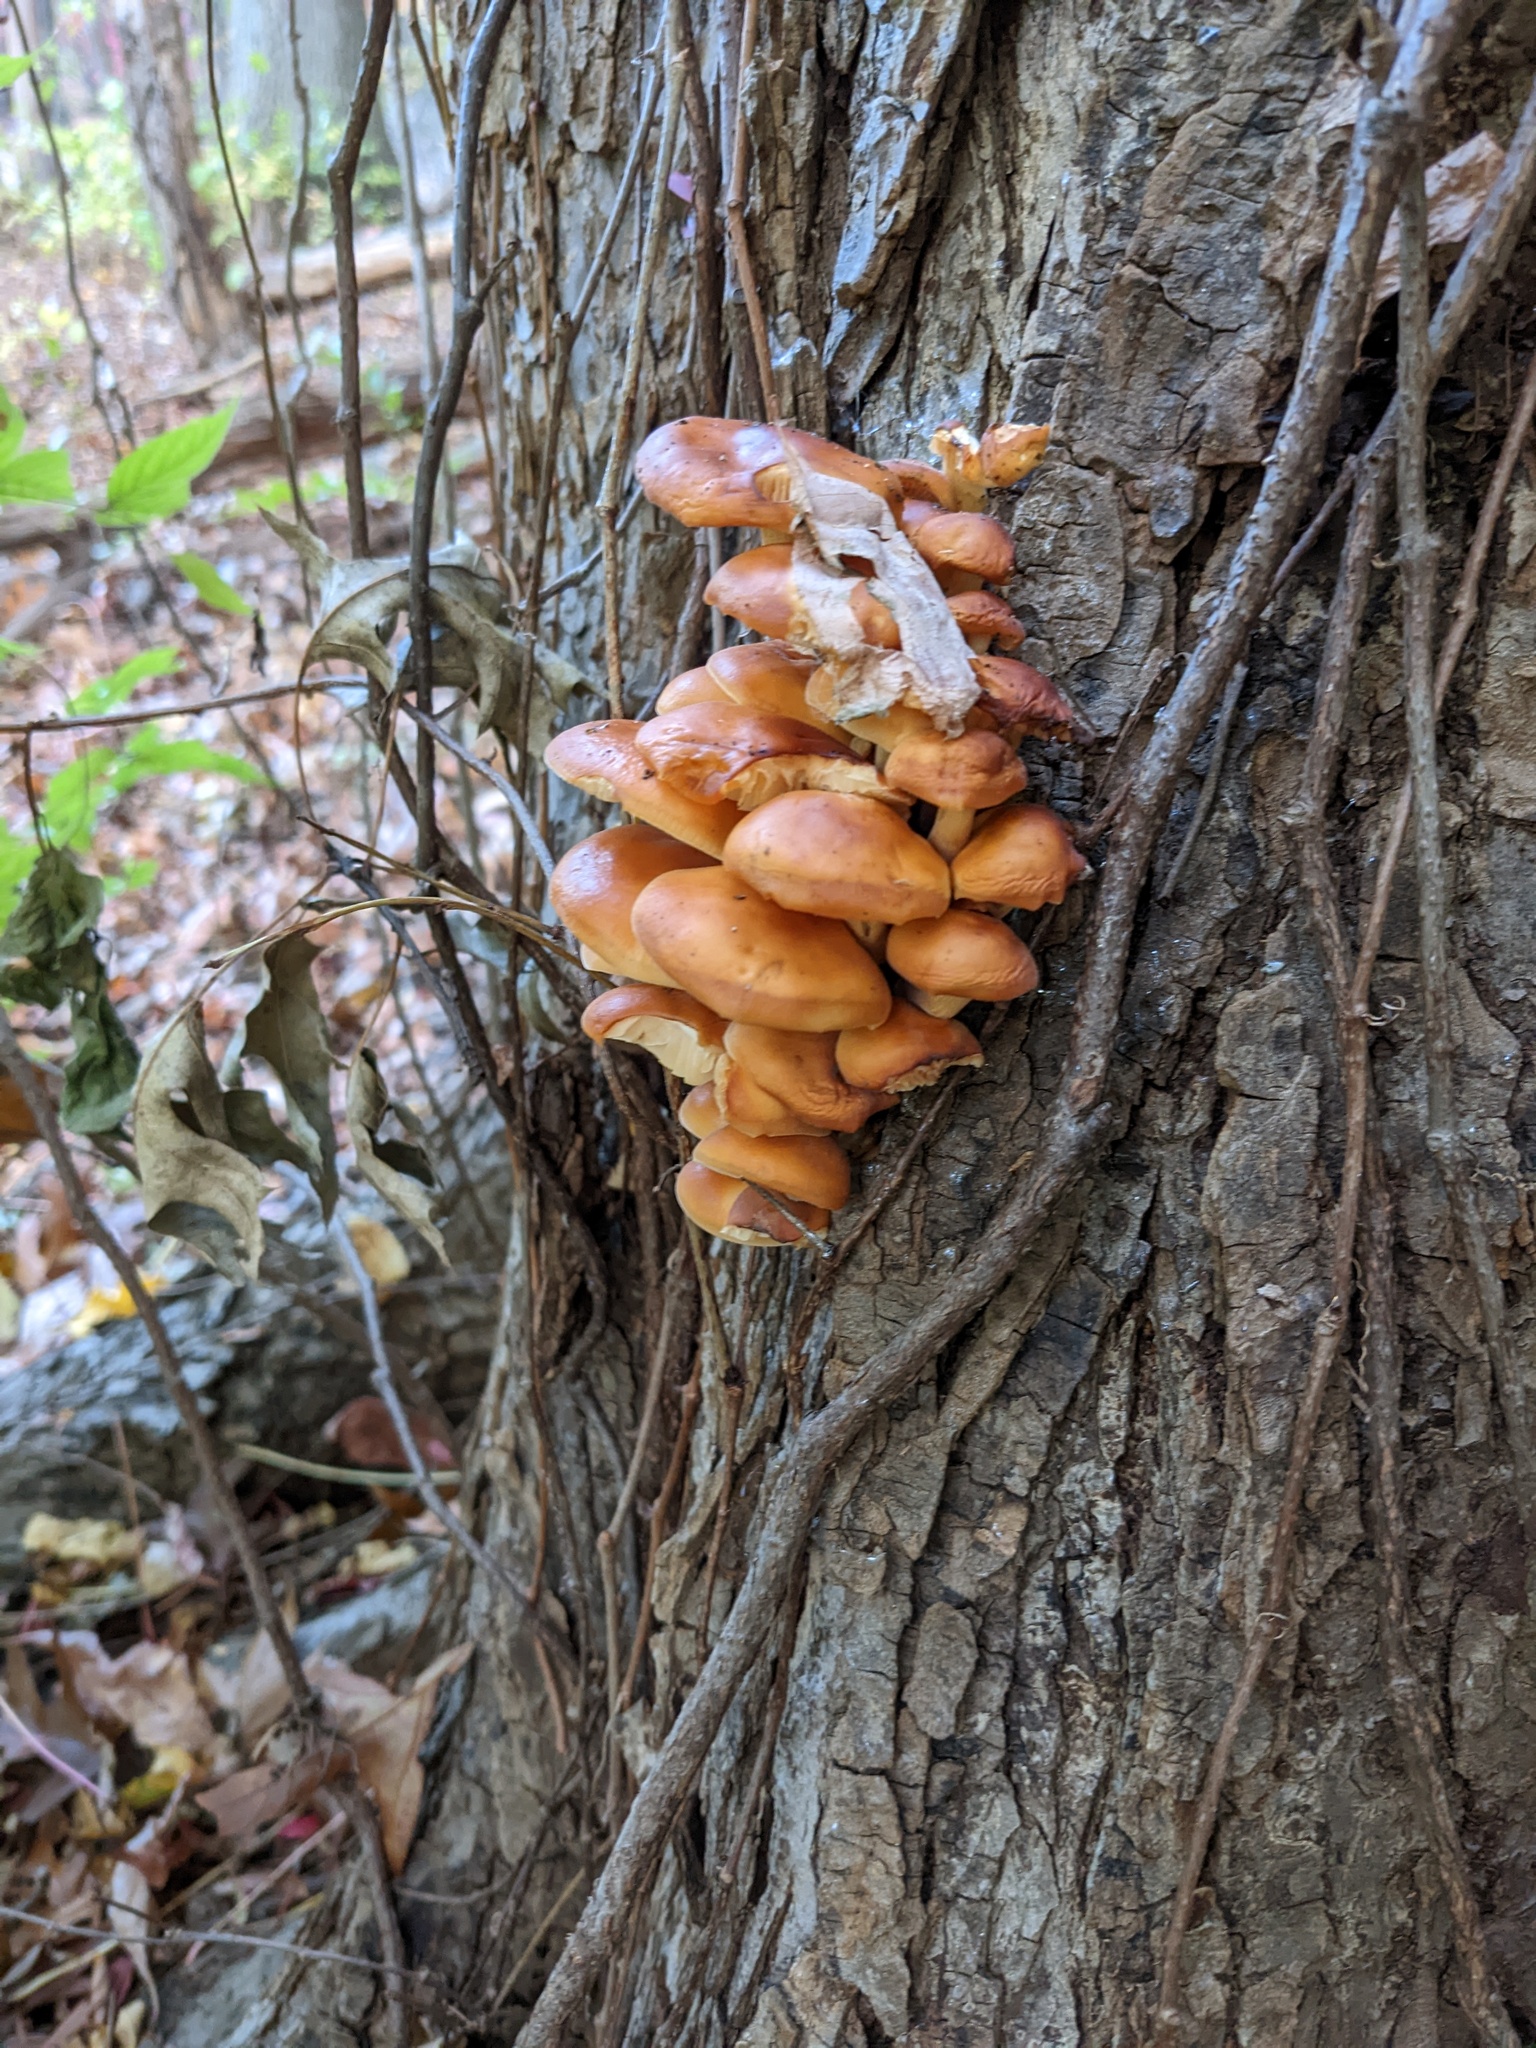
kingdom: Fungi
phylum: Basidiomycota
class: Agaricomycetes
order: Agaricales
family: Physalacriaceae
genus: Flammulina
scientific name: Flammulina velutipes
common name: Velvet shank
